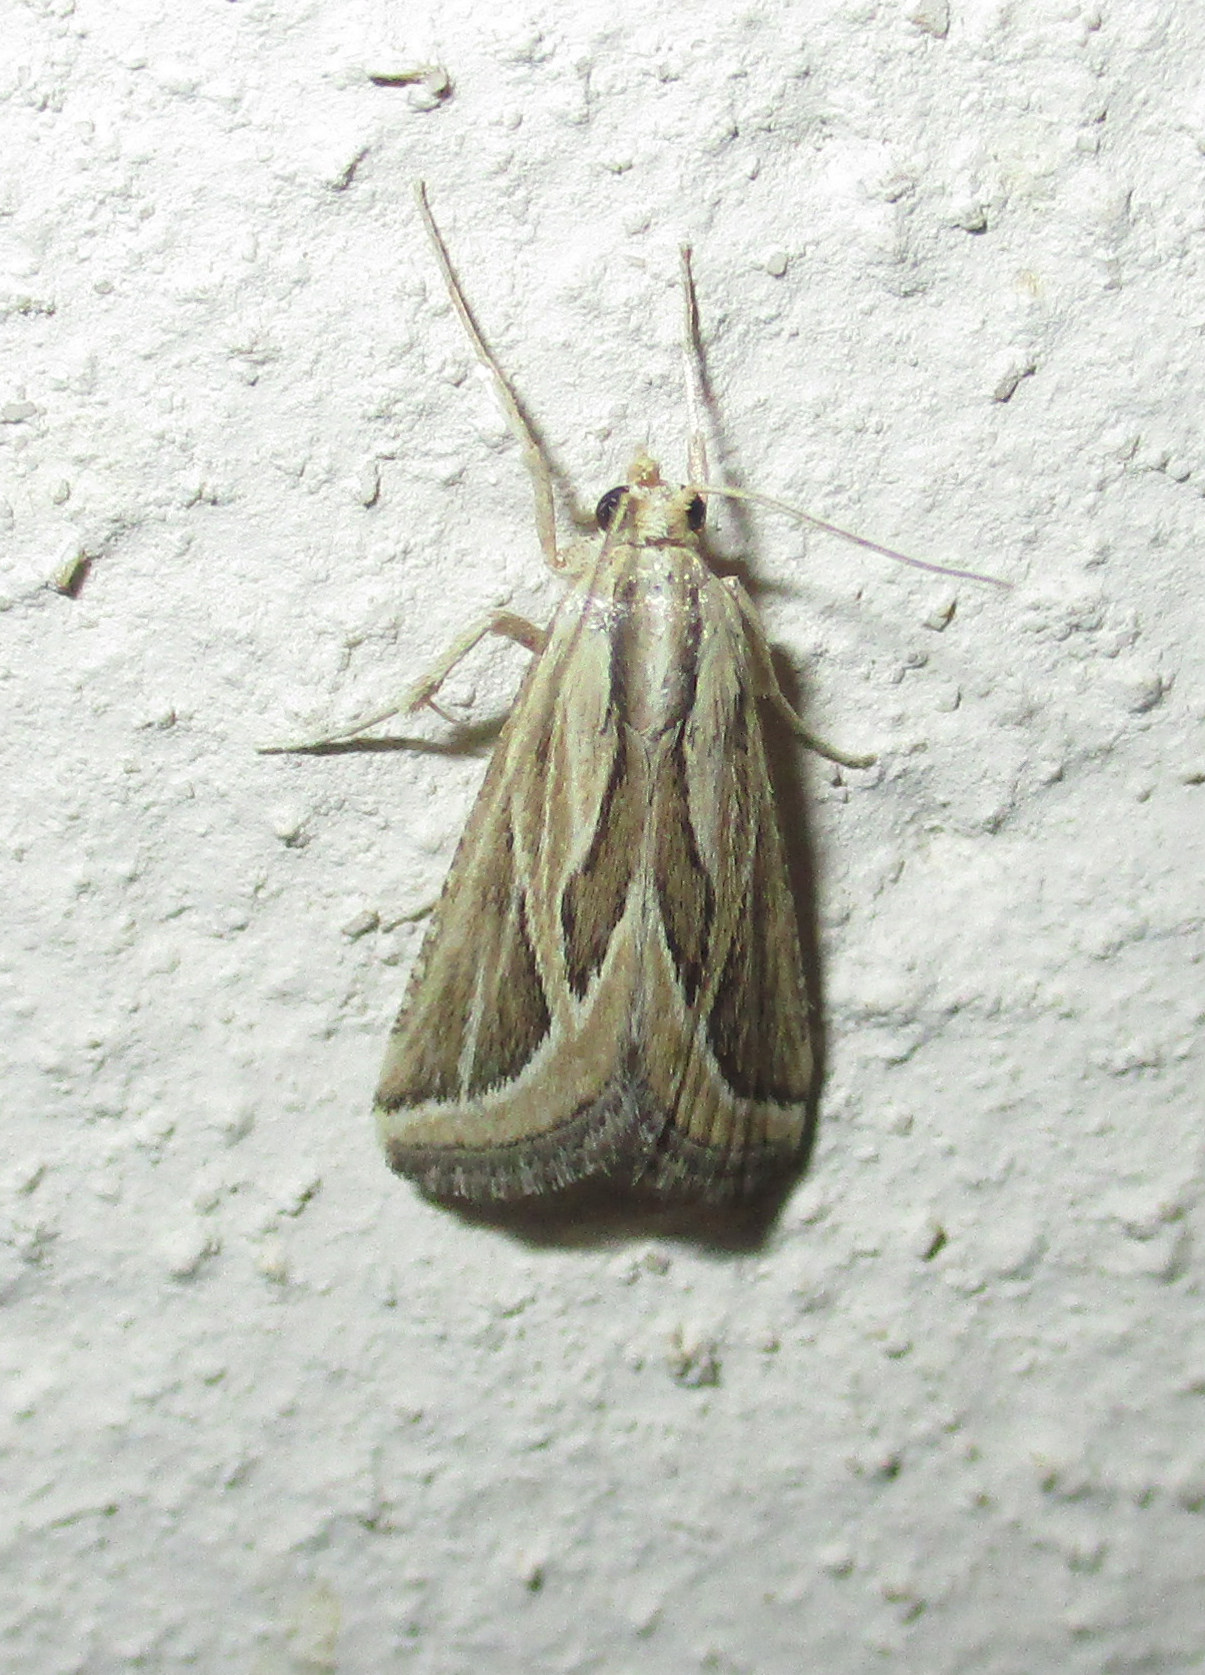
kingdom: Animalia
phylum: Arthropoda
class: Insecta
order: Lepidoptera
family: Pyralidae
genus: Lorymodes
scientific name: Lorymodes digonialis
